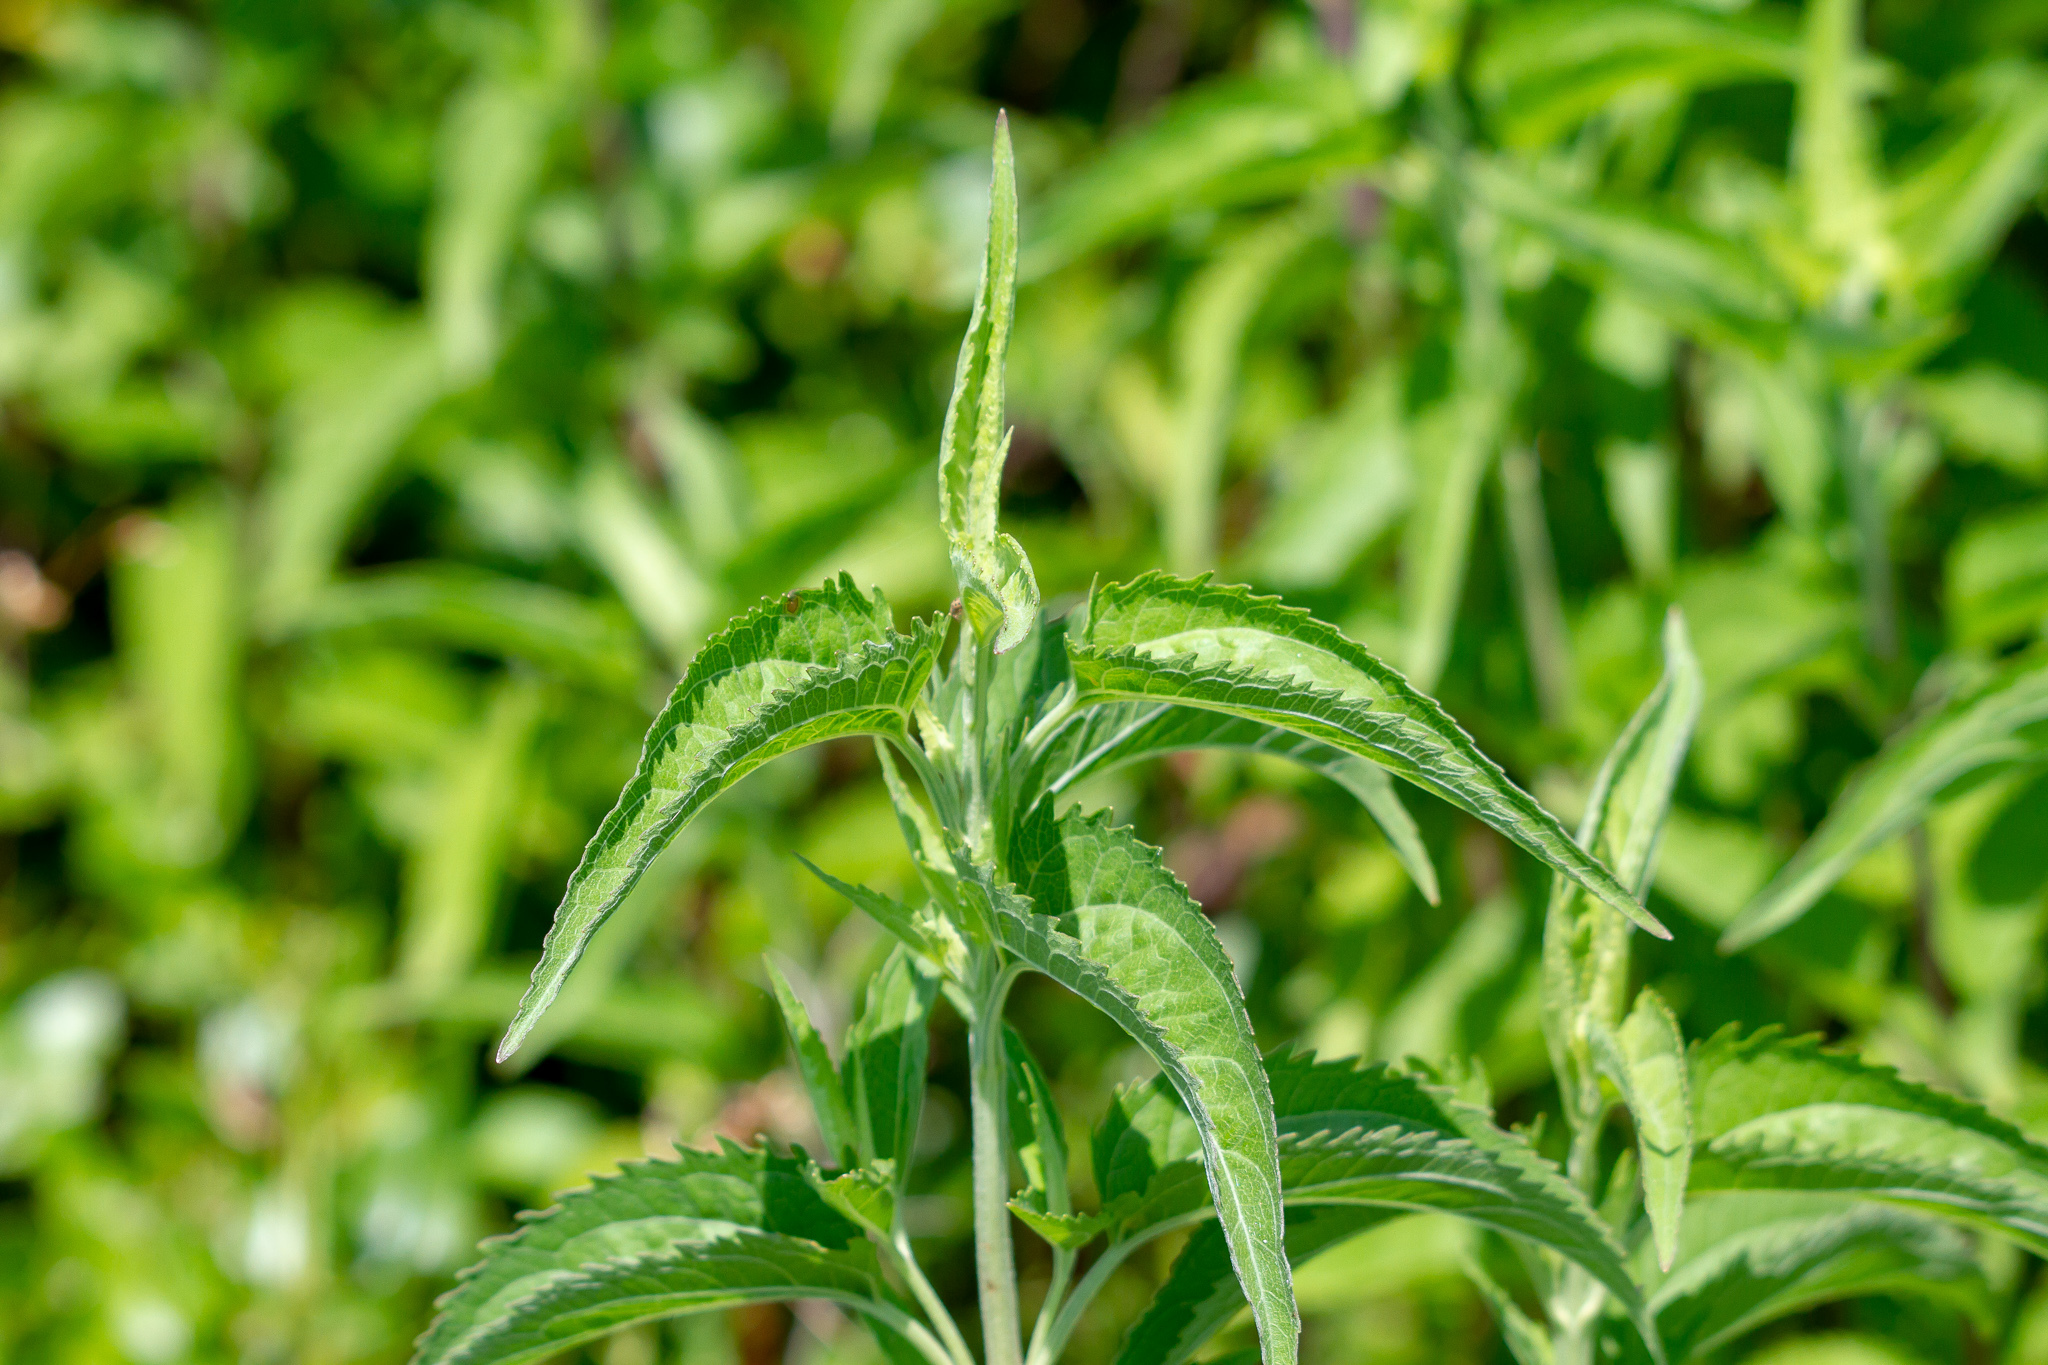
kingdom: Plantae
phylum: Tracheophyta
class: Magnoliopsida
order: Asterales
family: Asteraceae
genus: Eupatorium
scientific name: Eupatorium serotinum
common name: Late boneset
